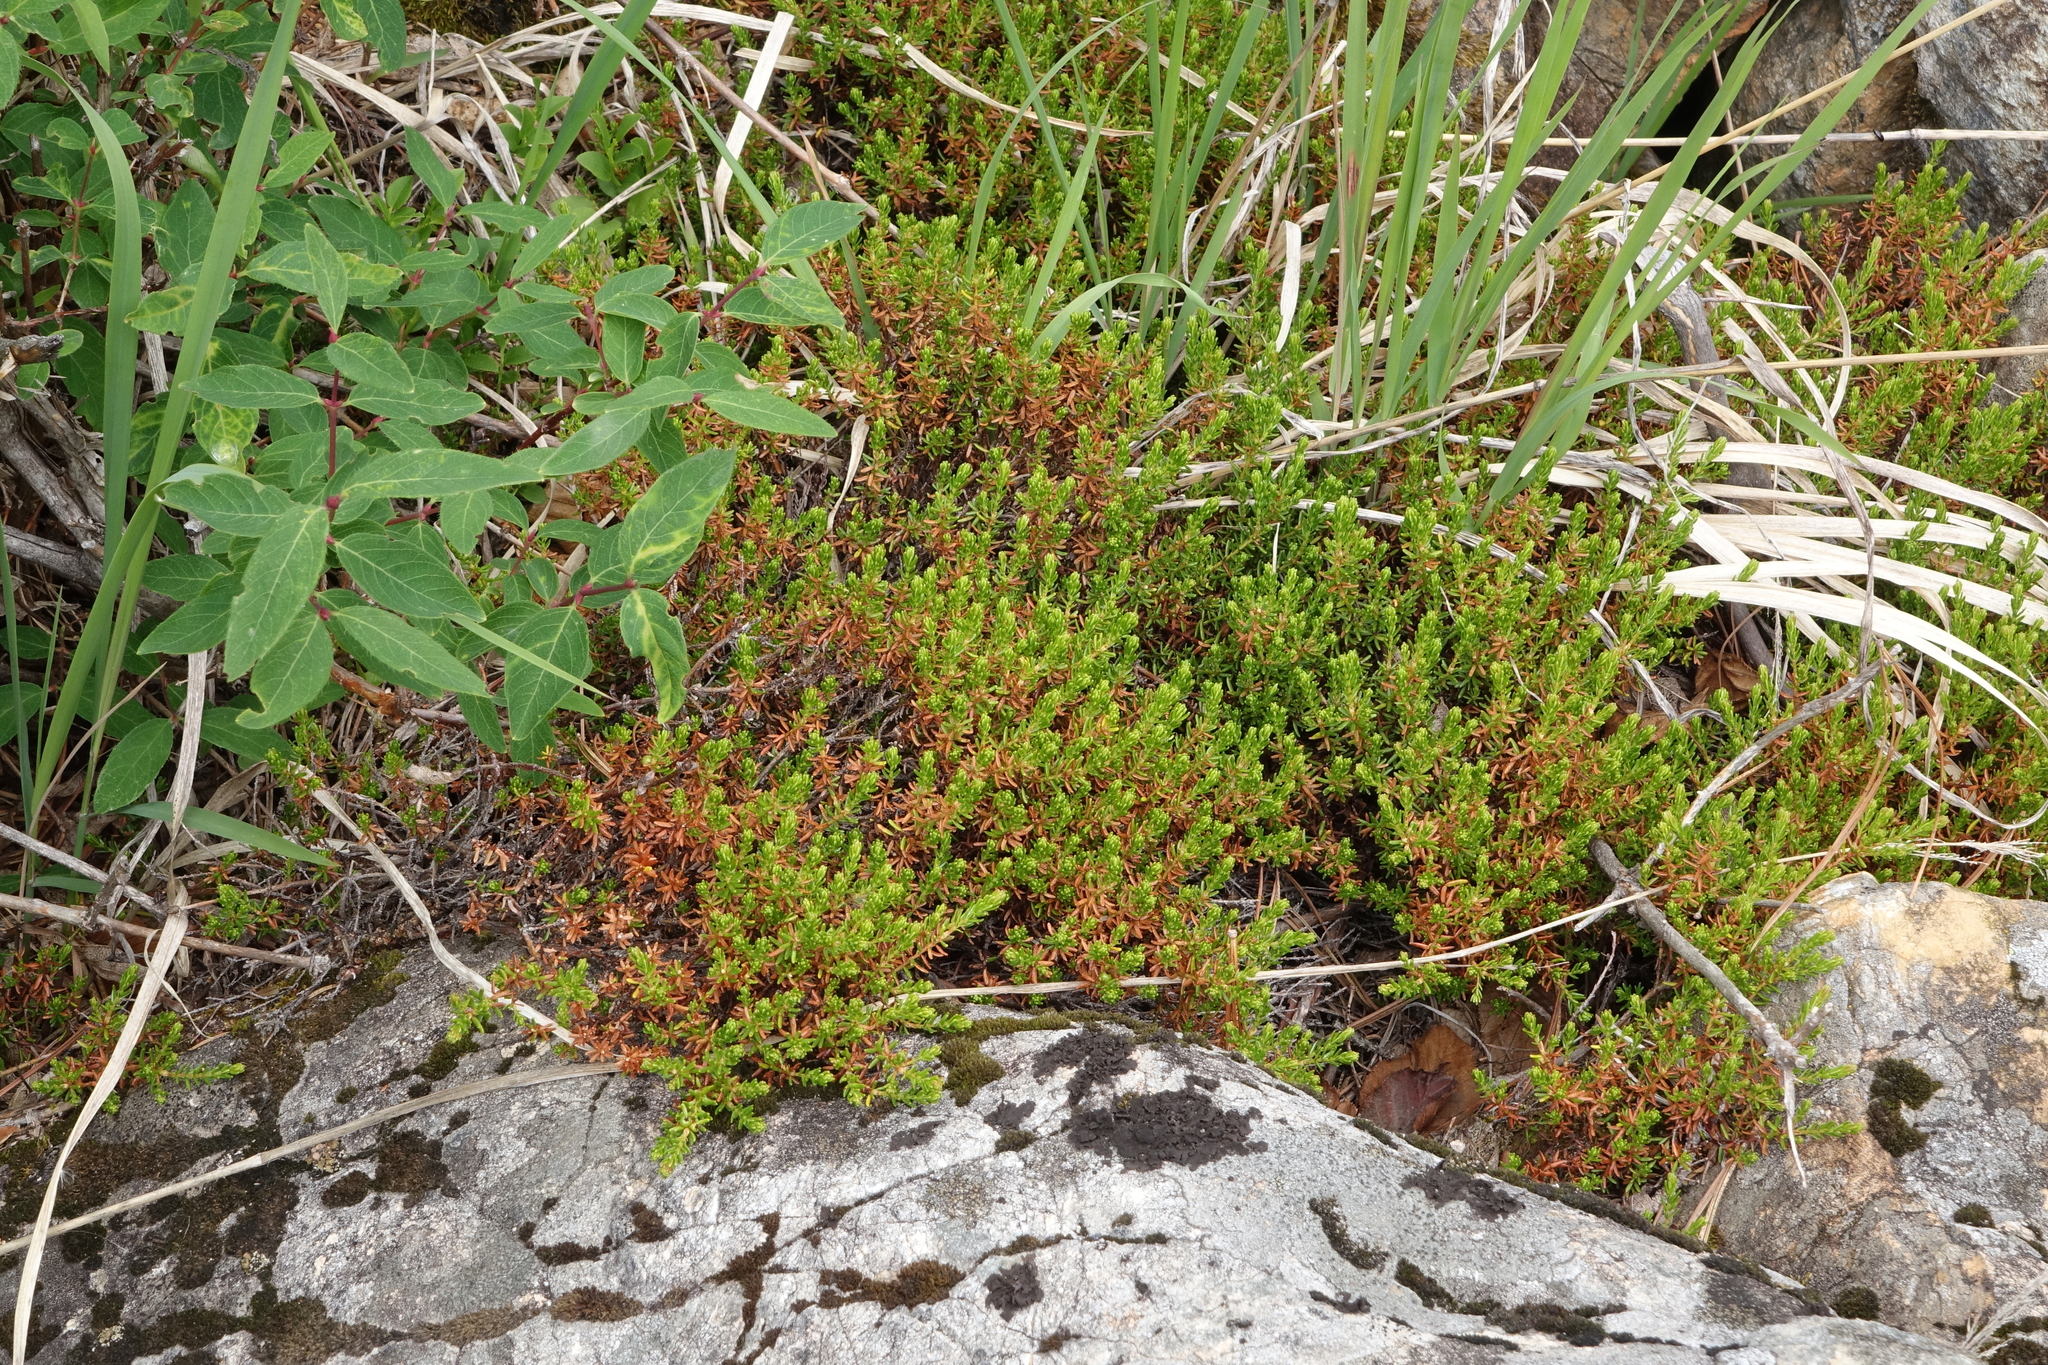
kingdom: Plantae
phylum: Tracheophyta
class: Magnoliopsida
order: Ericales
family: Ericaceae
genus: Empetrum
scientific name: Empetrum nigrum
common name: Black crowberry
